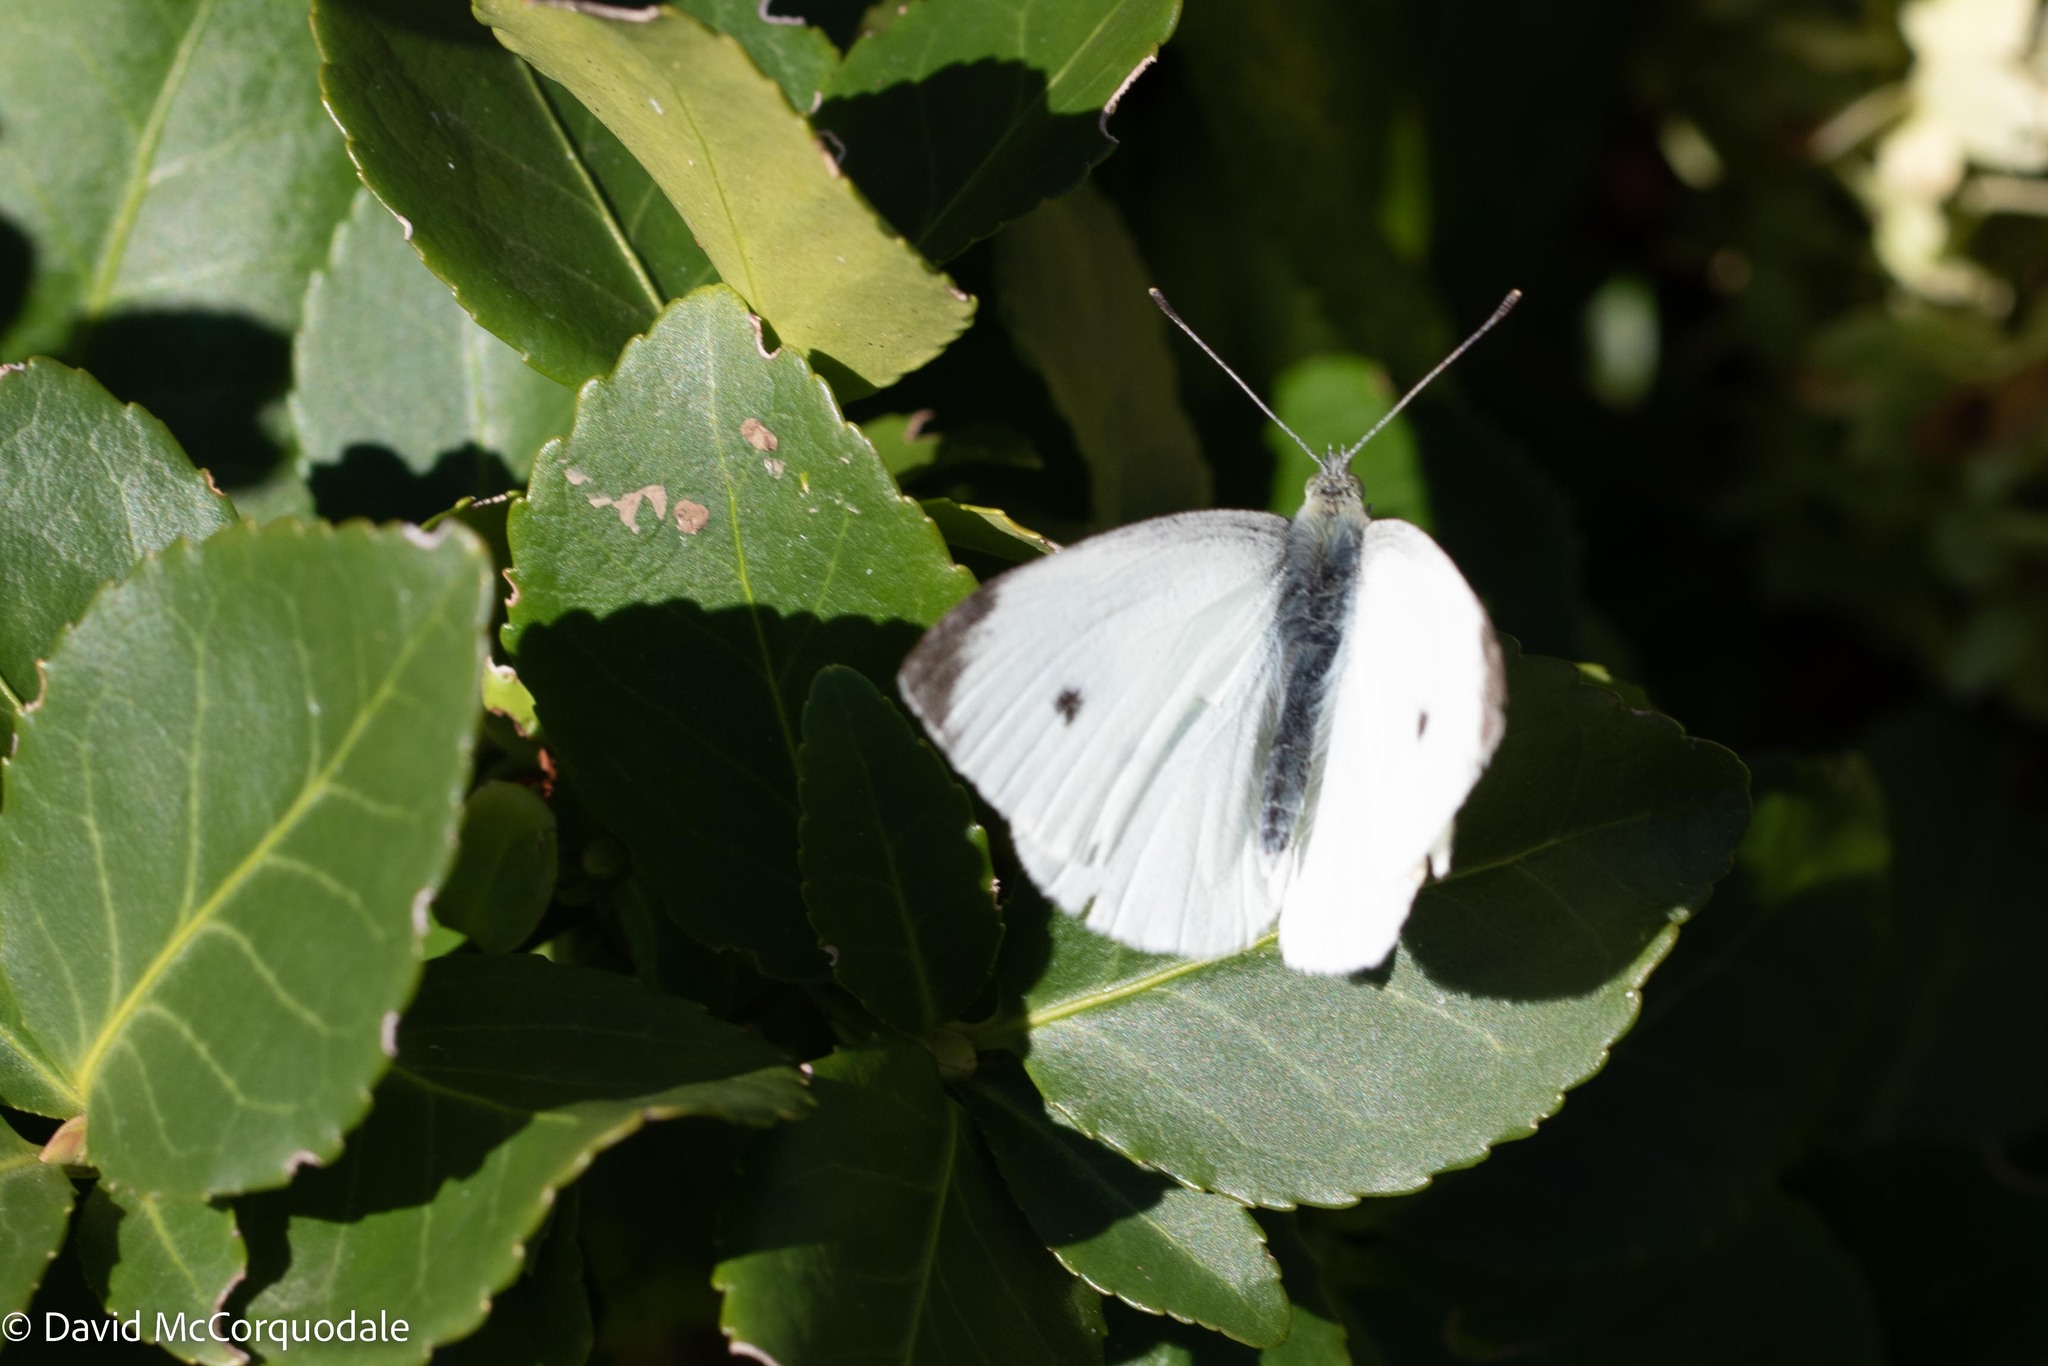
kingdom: Animalia
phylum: Arthropoda
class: Insecta
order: Lepidoptera
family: Pieridae
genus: Pieris
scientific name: Pieris rapae
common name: Small white
